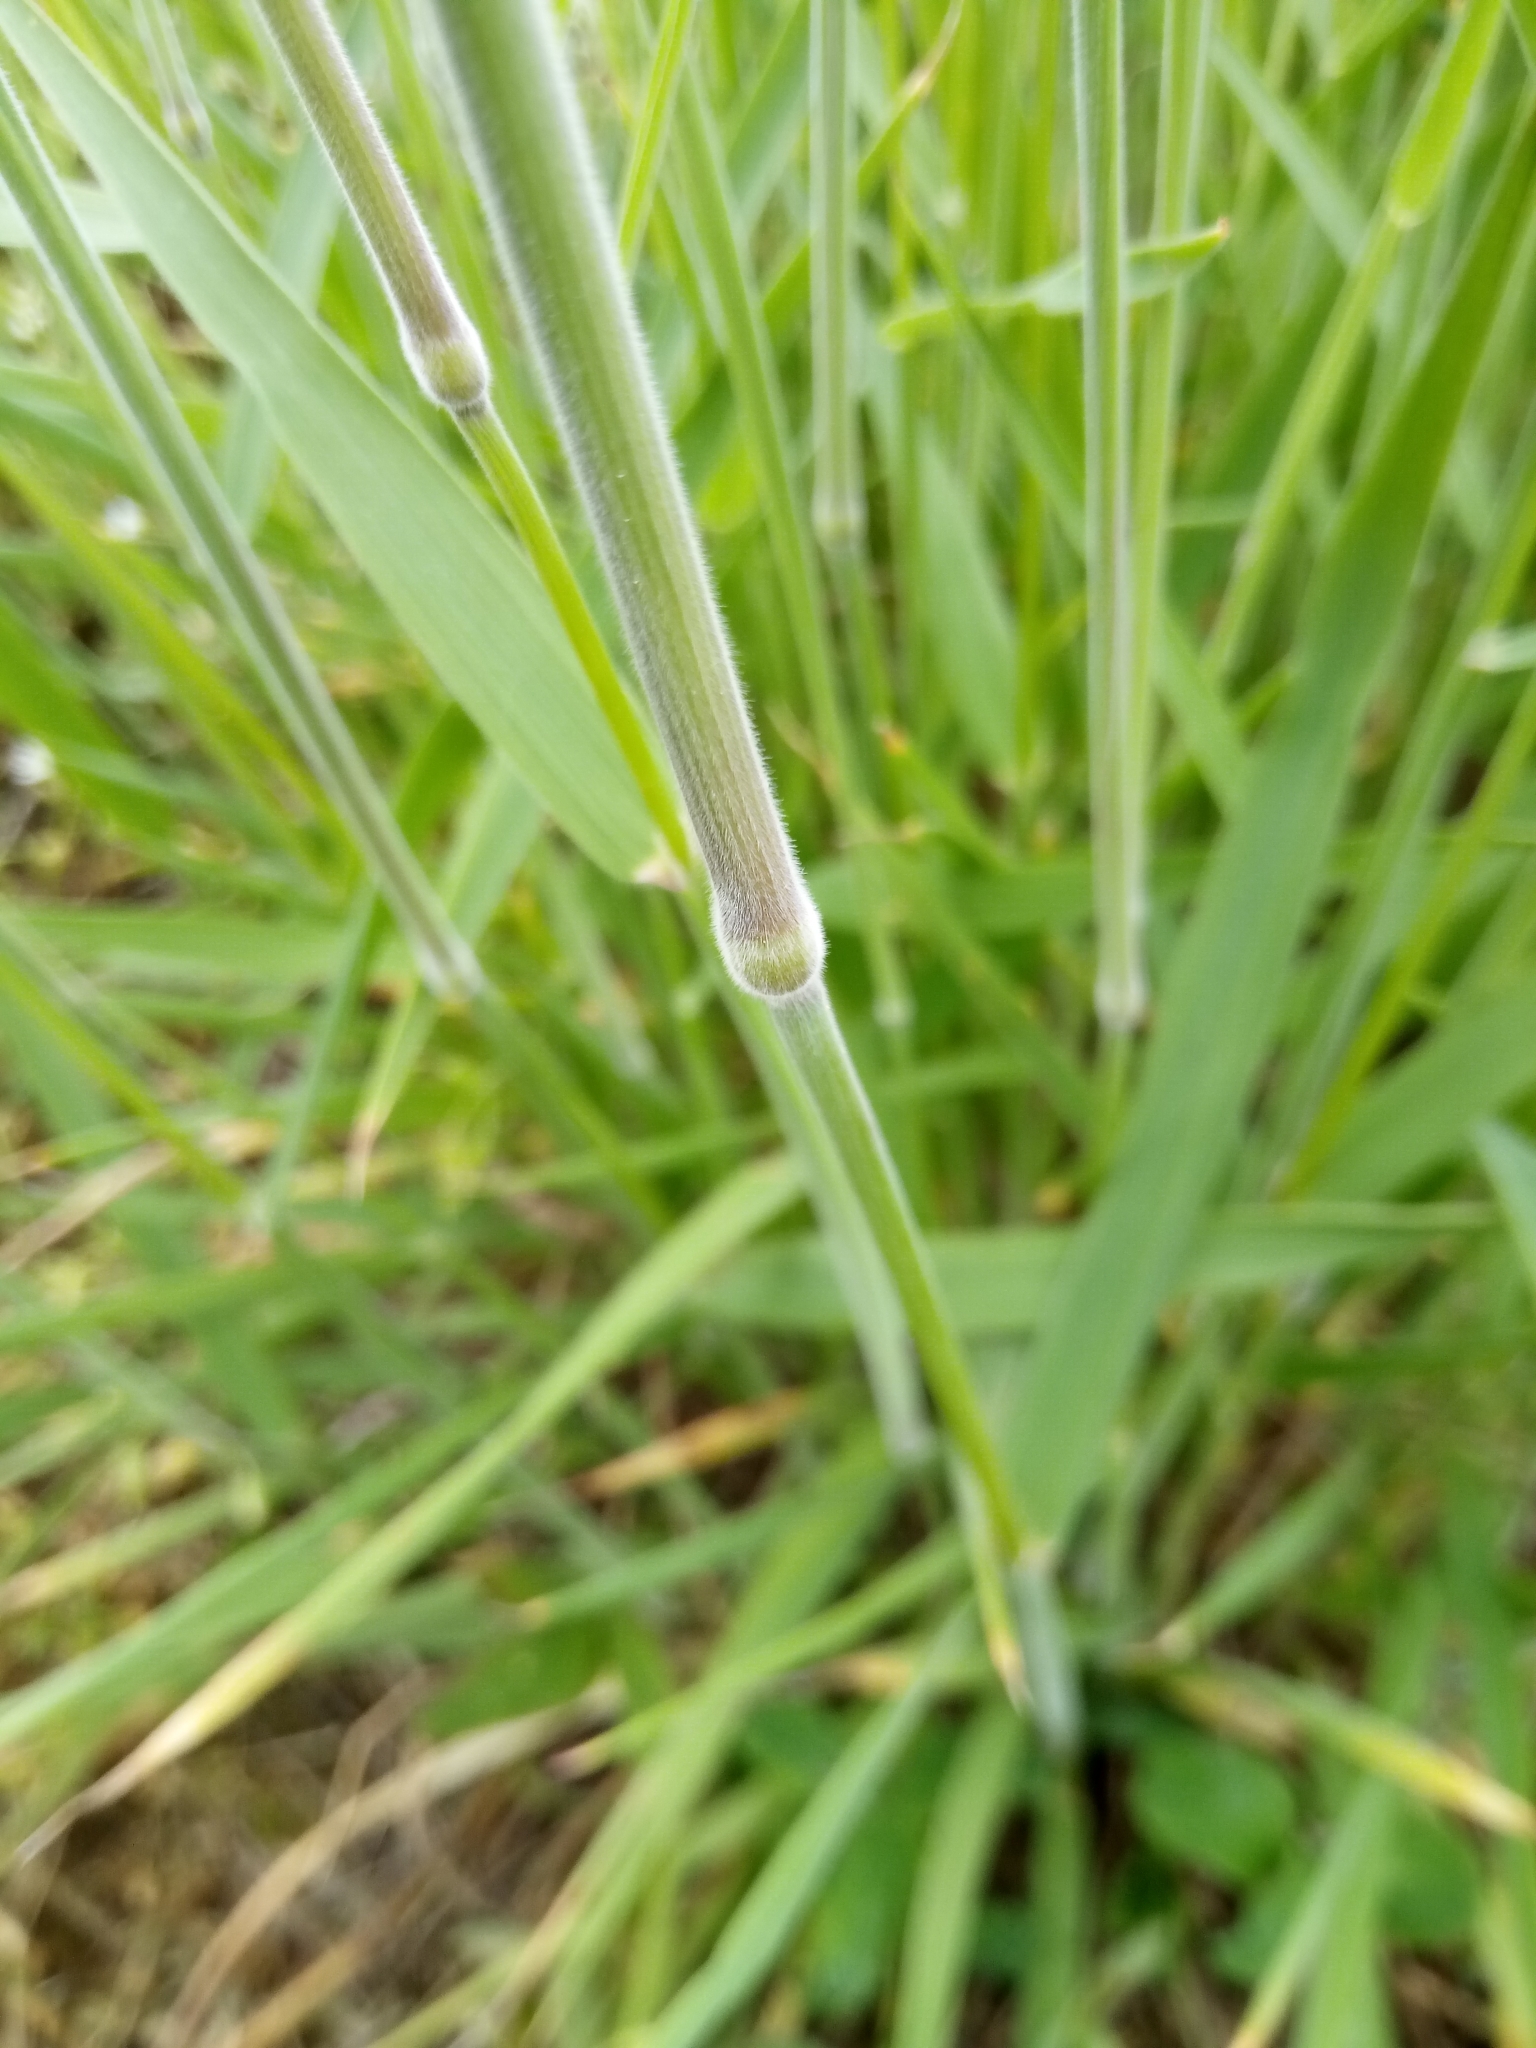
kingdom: Plantae
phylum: Tracheophyta
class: Liliopsida
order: Poales
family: Poaceae
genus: Holcus
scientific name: Holcus lanatus
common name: Yorkshire-fog
